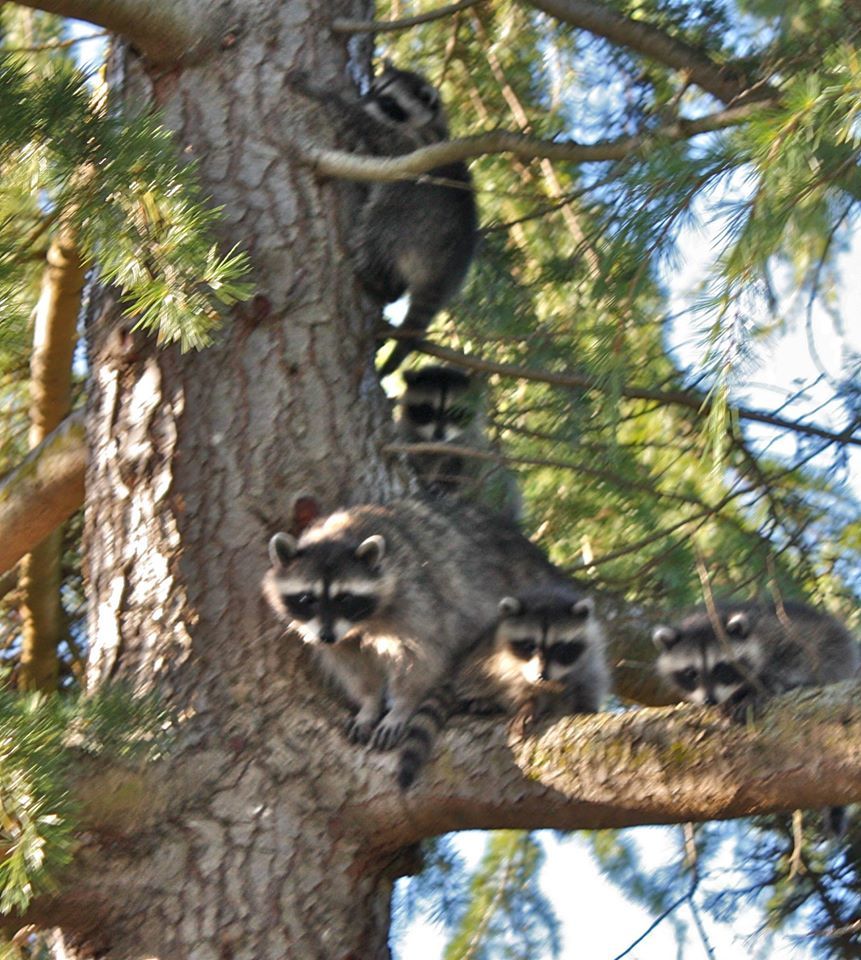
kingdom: Animalia
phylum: Chordata
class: Mammalia
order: Carnivora
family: Procyonidae
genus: Procyon
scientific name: Procyon lotor
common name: Raccoon
